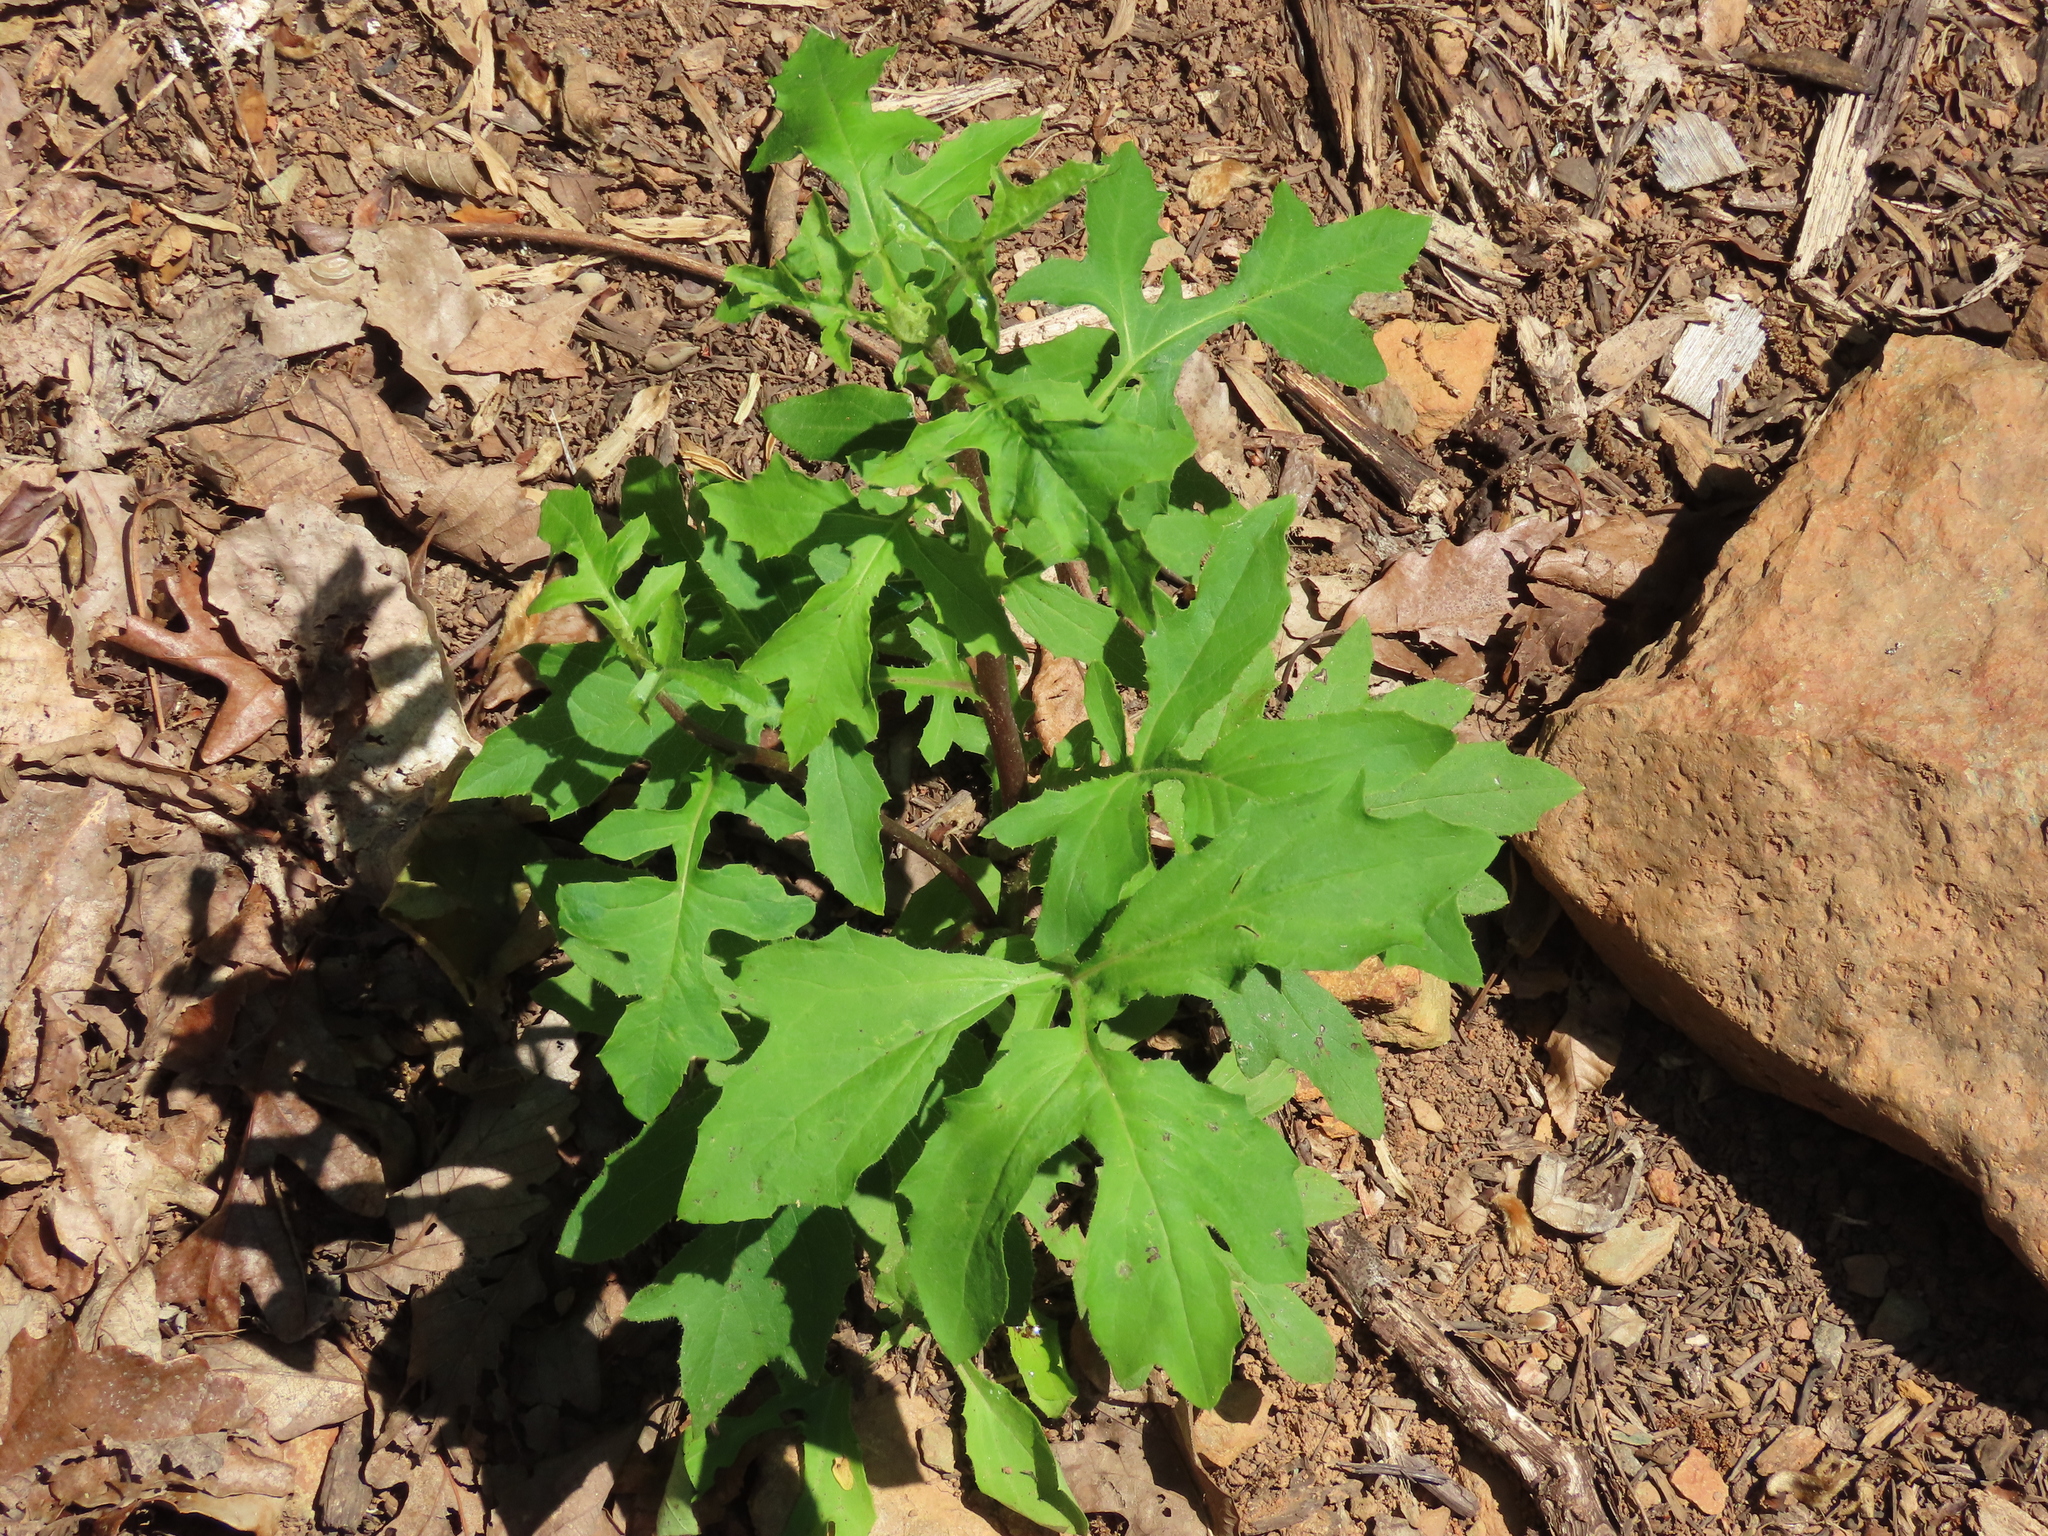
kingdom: Plantae
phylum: Tracheophyta
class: Magnoliopsida
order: Asterales
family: Asteraceae
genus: Nabalus
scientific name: Nabalus serpentarius
